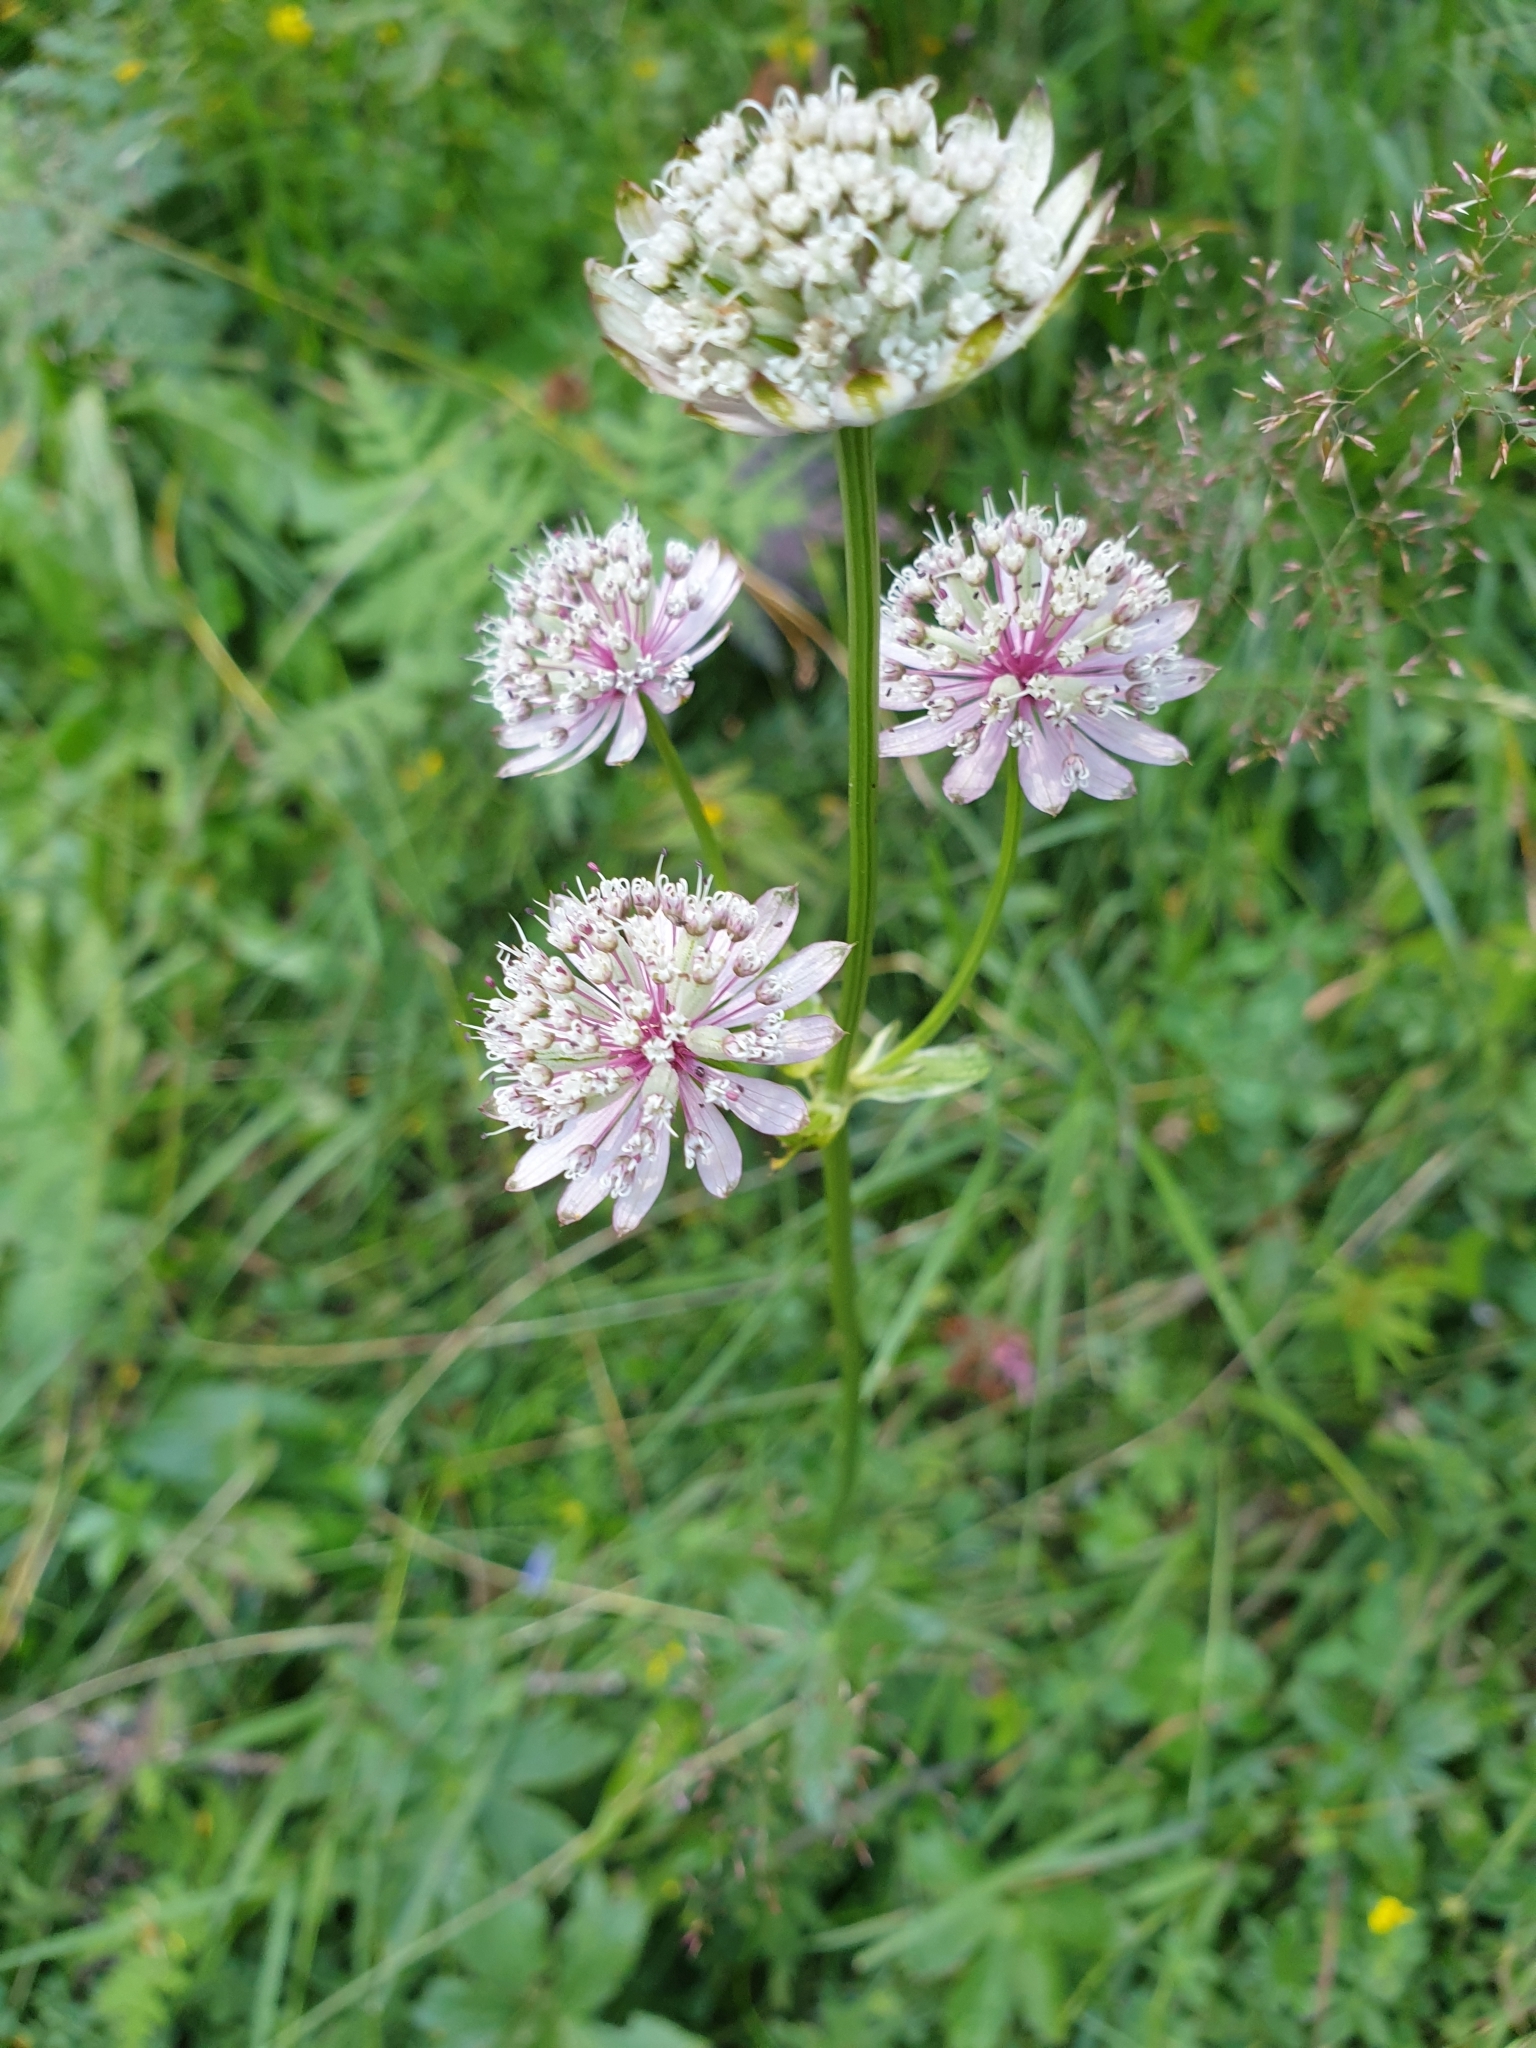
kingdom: Plantae
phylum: Tracheophyta
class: Magnoliopsida
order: Apiales
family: Apiaceae
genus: Astrantia
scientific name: Astrantia major
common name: Greater masterwort
